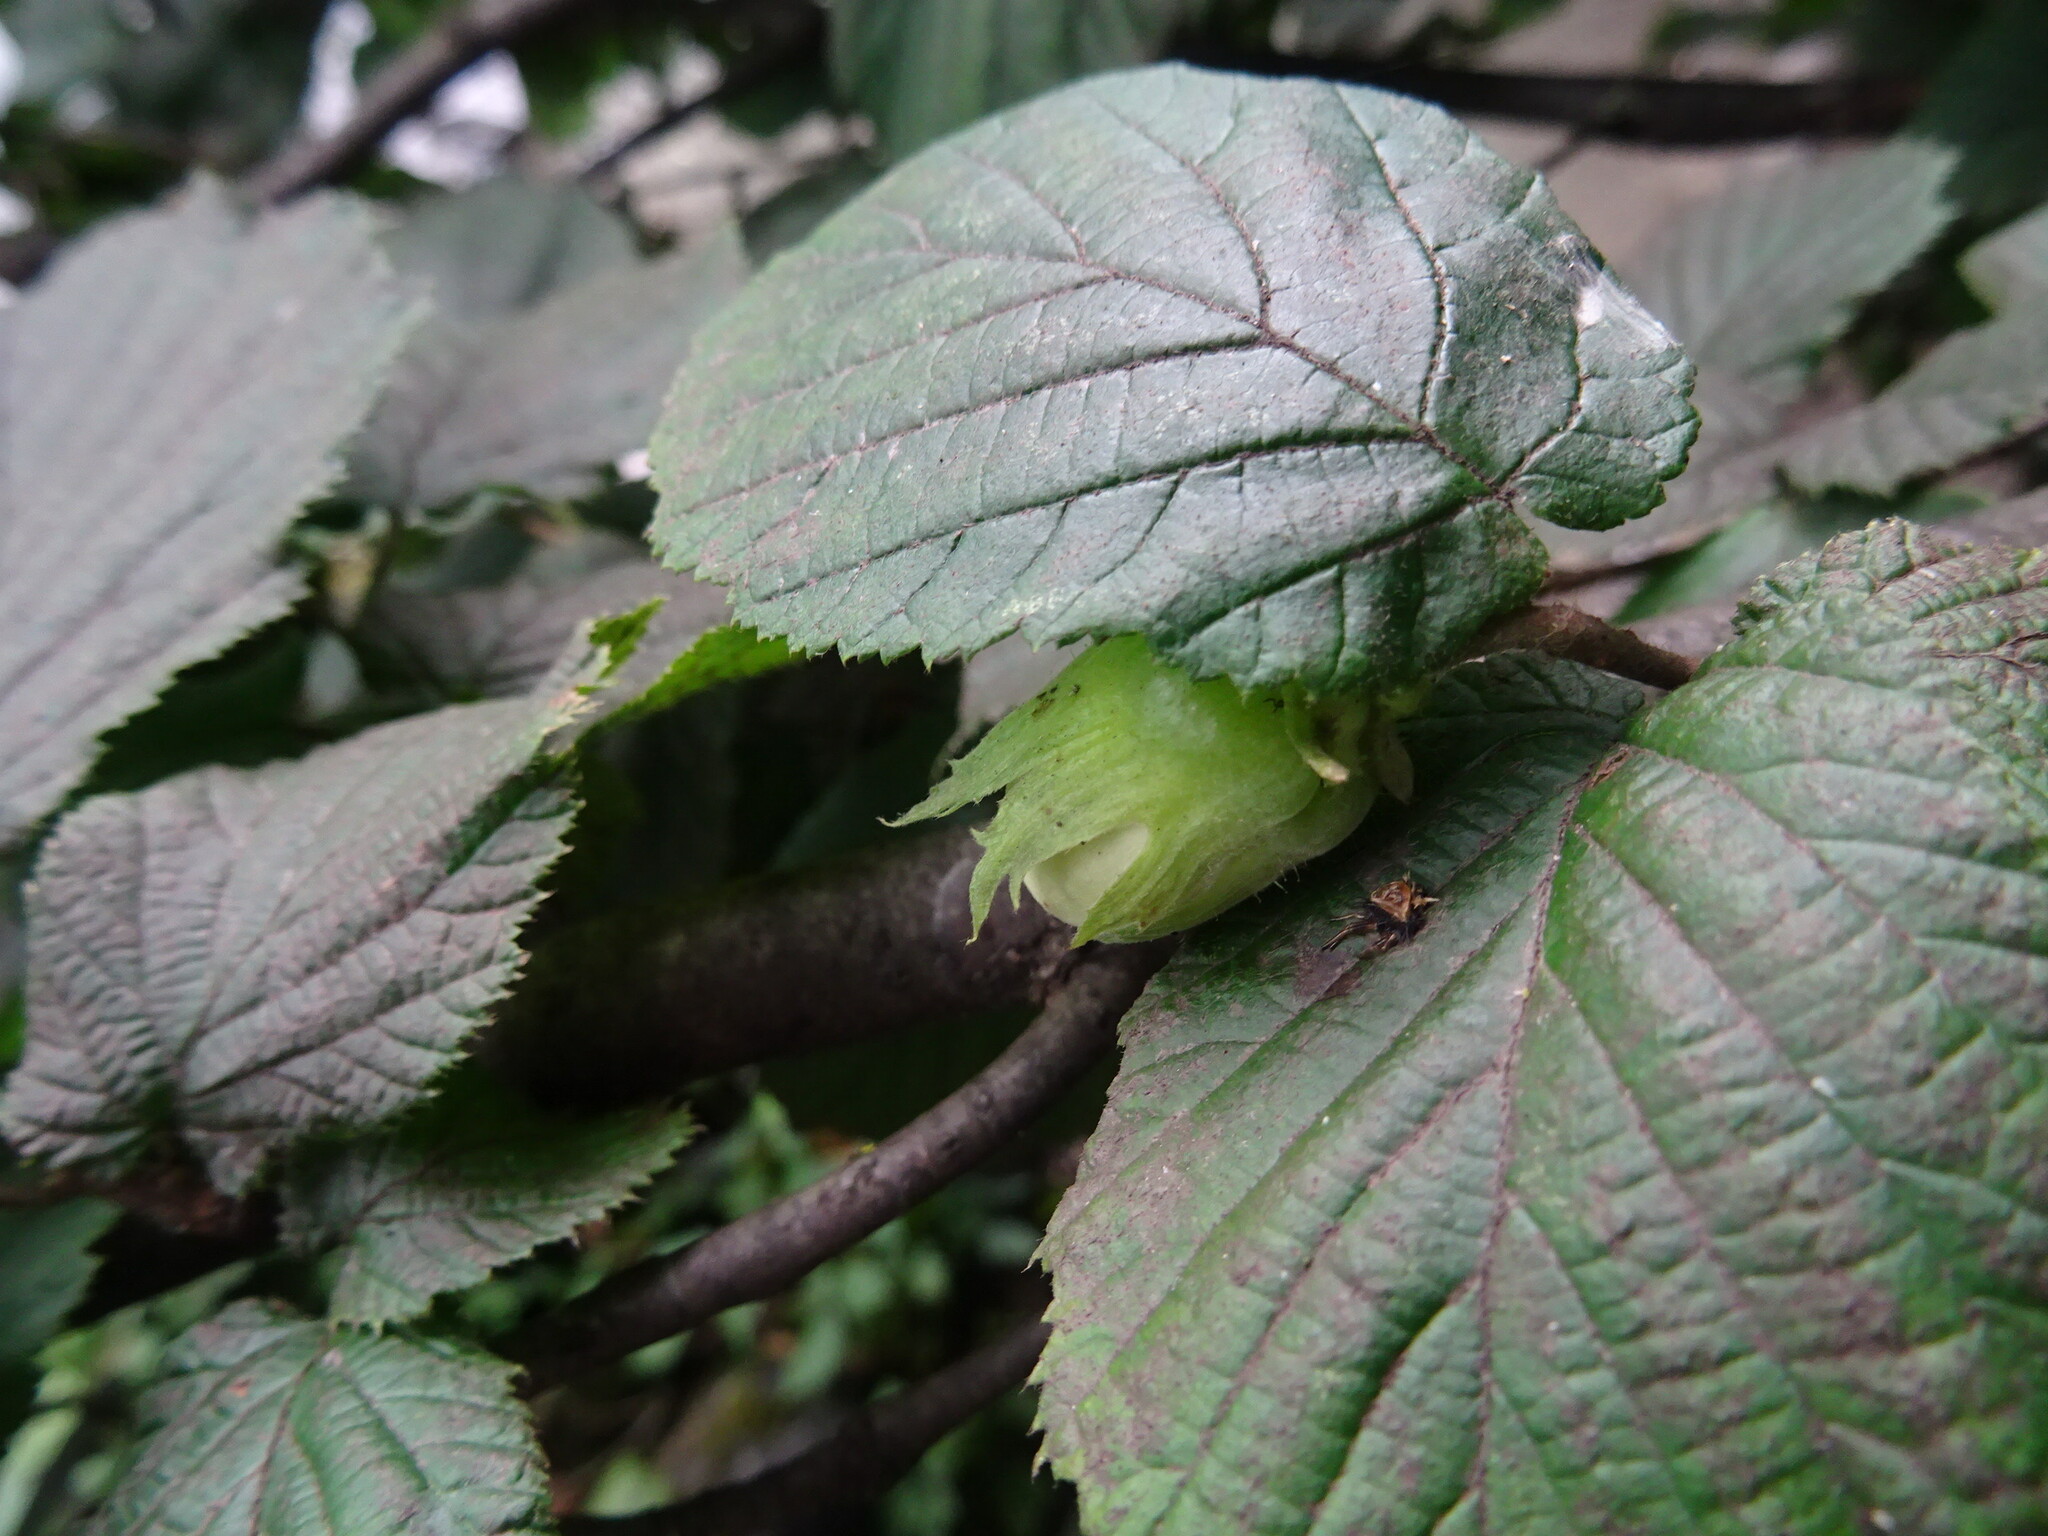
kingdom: Plantae
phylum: Tracheophyta
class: Magnoliopsida
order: Fagales
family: Betulaceae
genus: Corylus
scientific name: Corylus avellana
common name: European hazel
